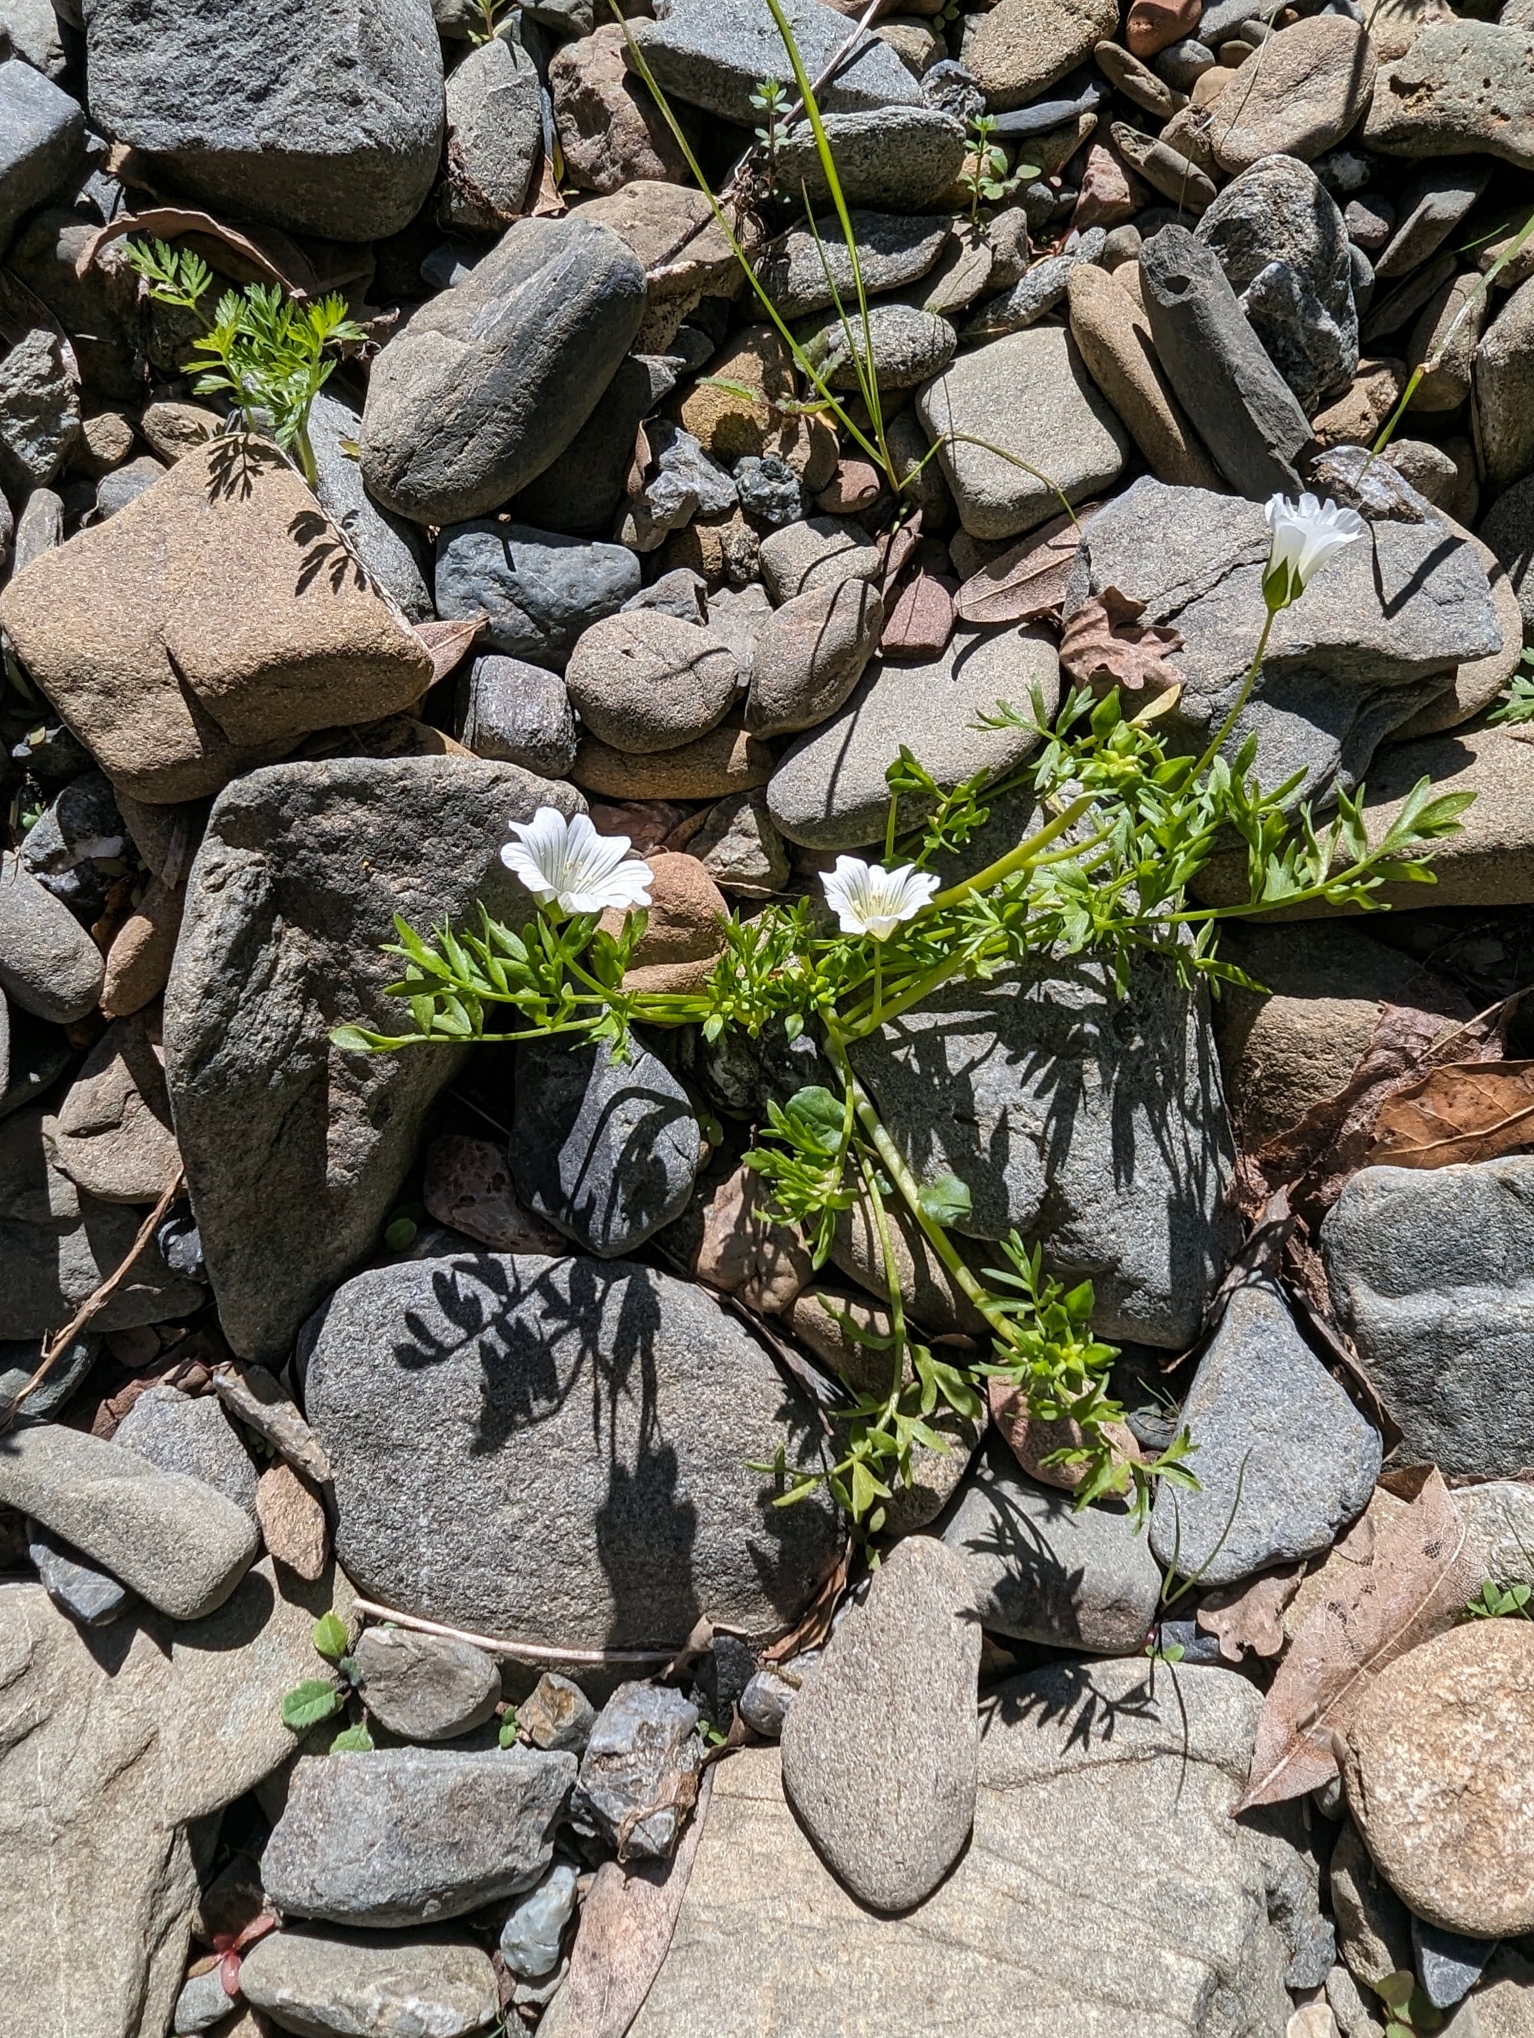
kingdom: Plantae
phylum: Tracheophyta
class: Magnoliopsida
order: Brassicales
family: Limnanthaceae
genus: Limnanthes
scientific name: Limnanthes douglasii
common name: Meadow-foam
